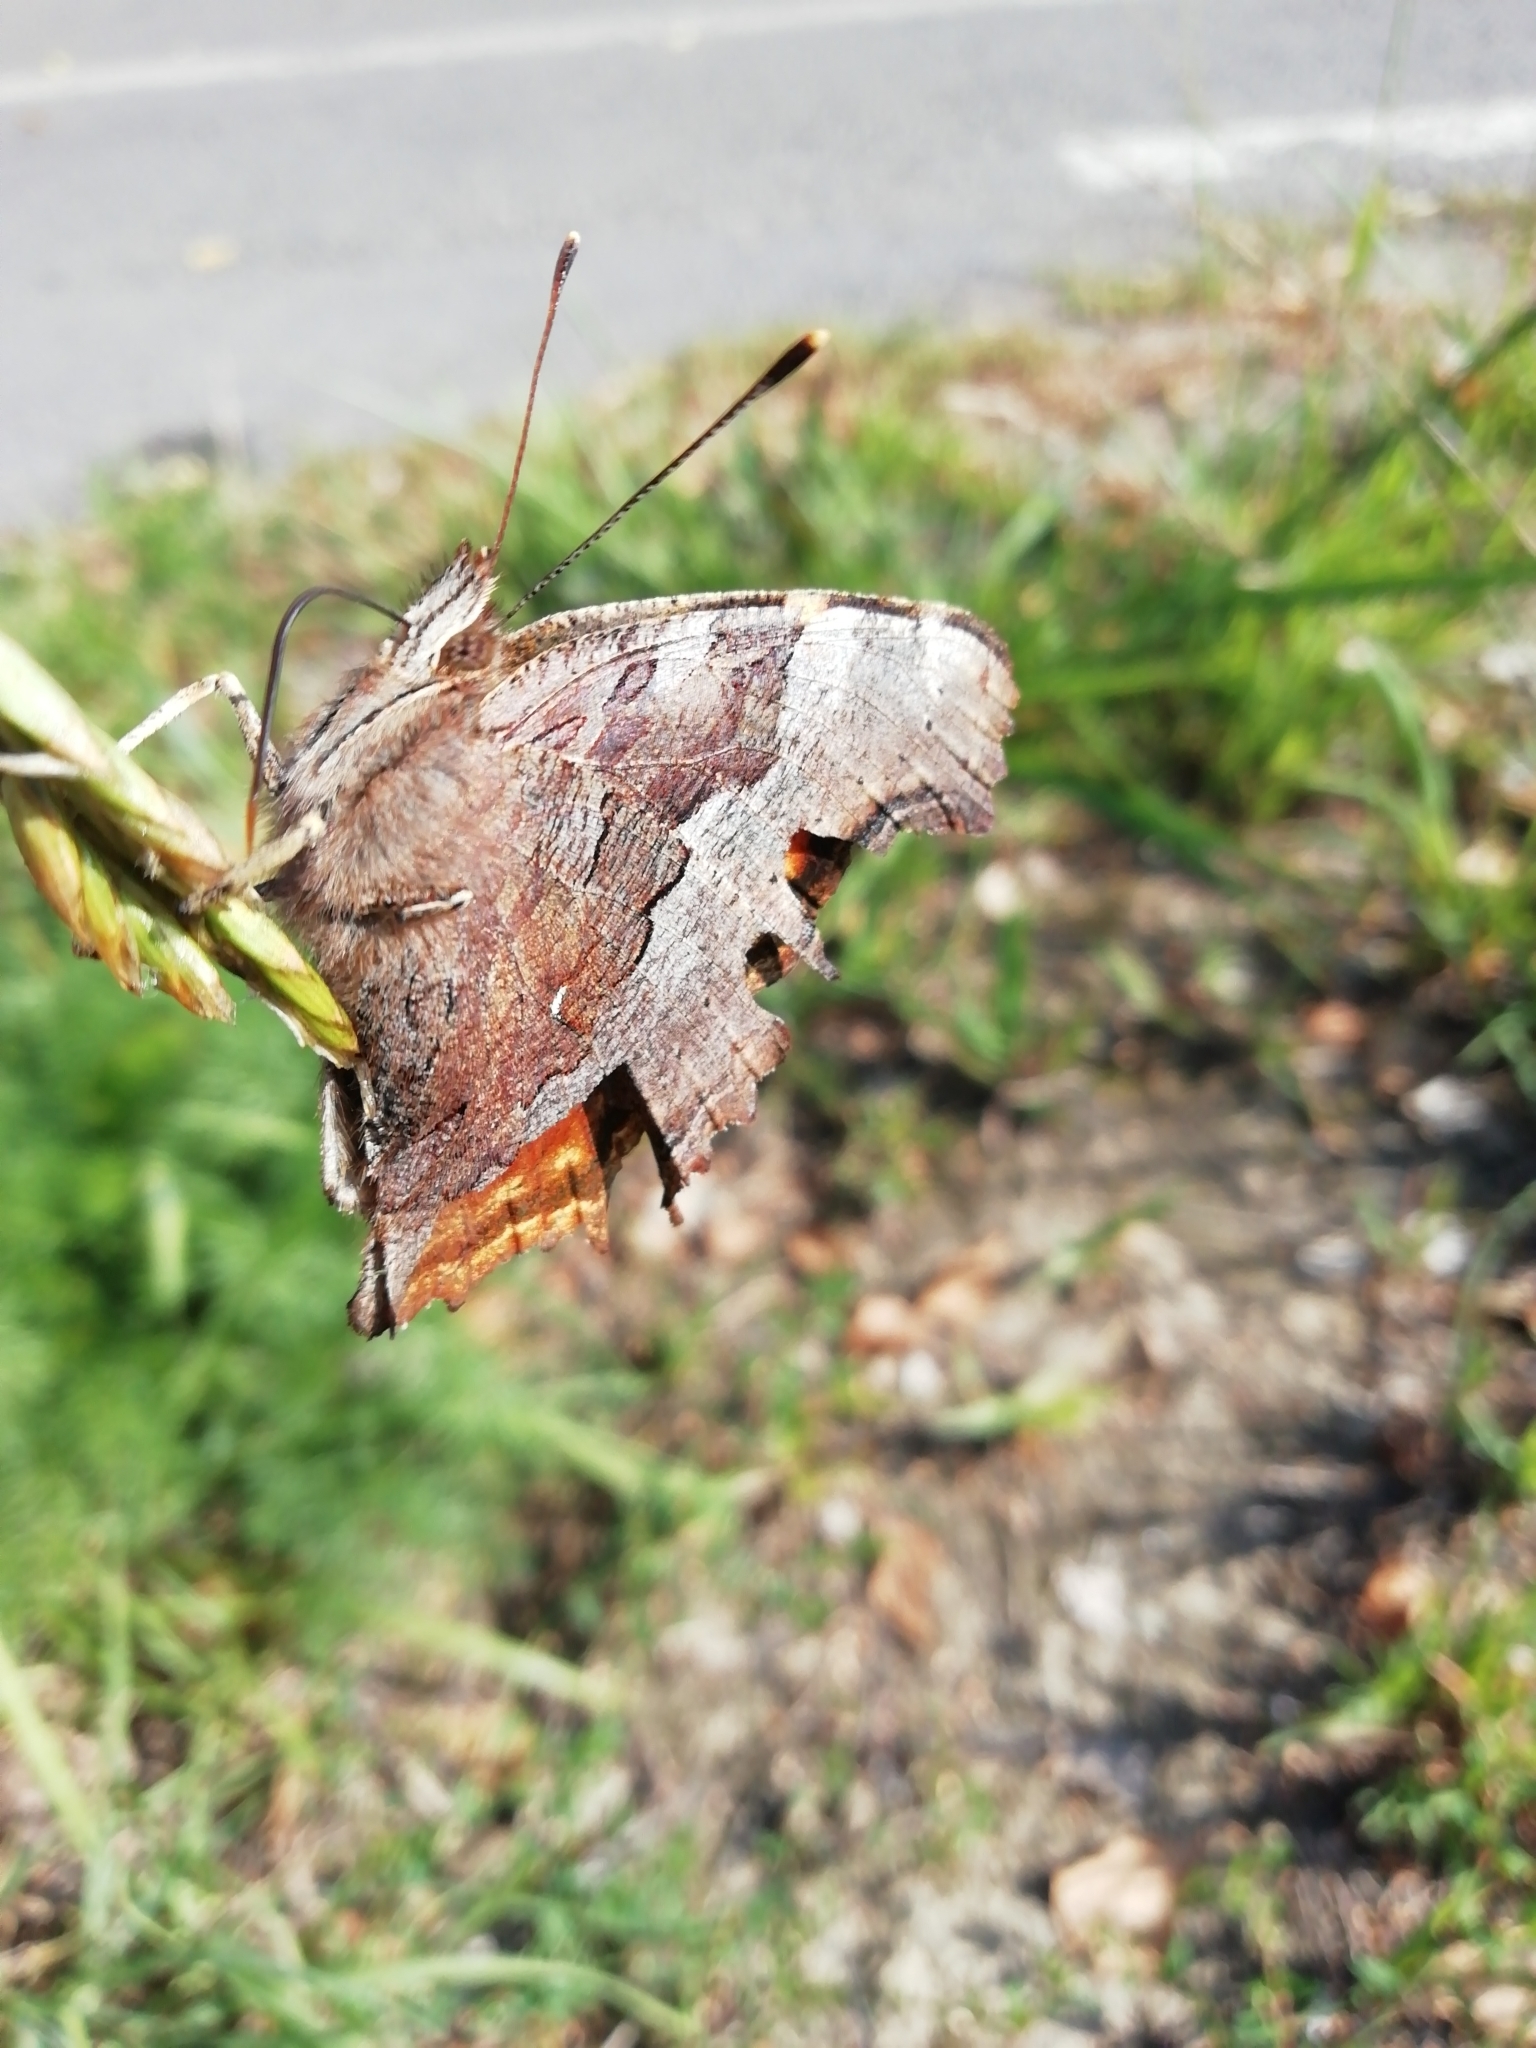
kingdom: Animalia
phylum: Arthropoda
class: Insecta
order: Lepidoptera
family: Nymphalidae
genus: Polygonia
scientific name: Polygonia vaualbum
